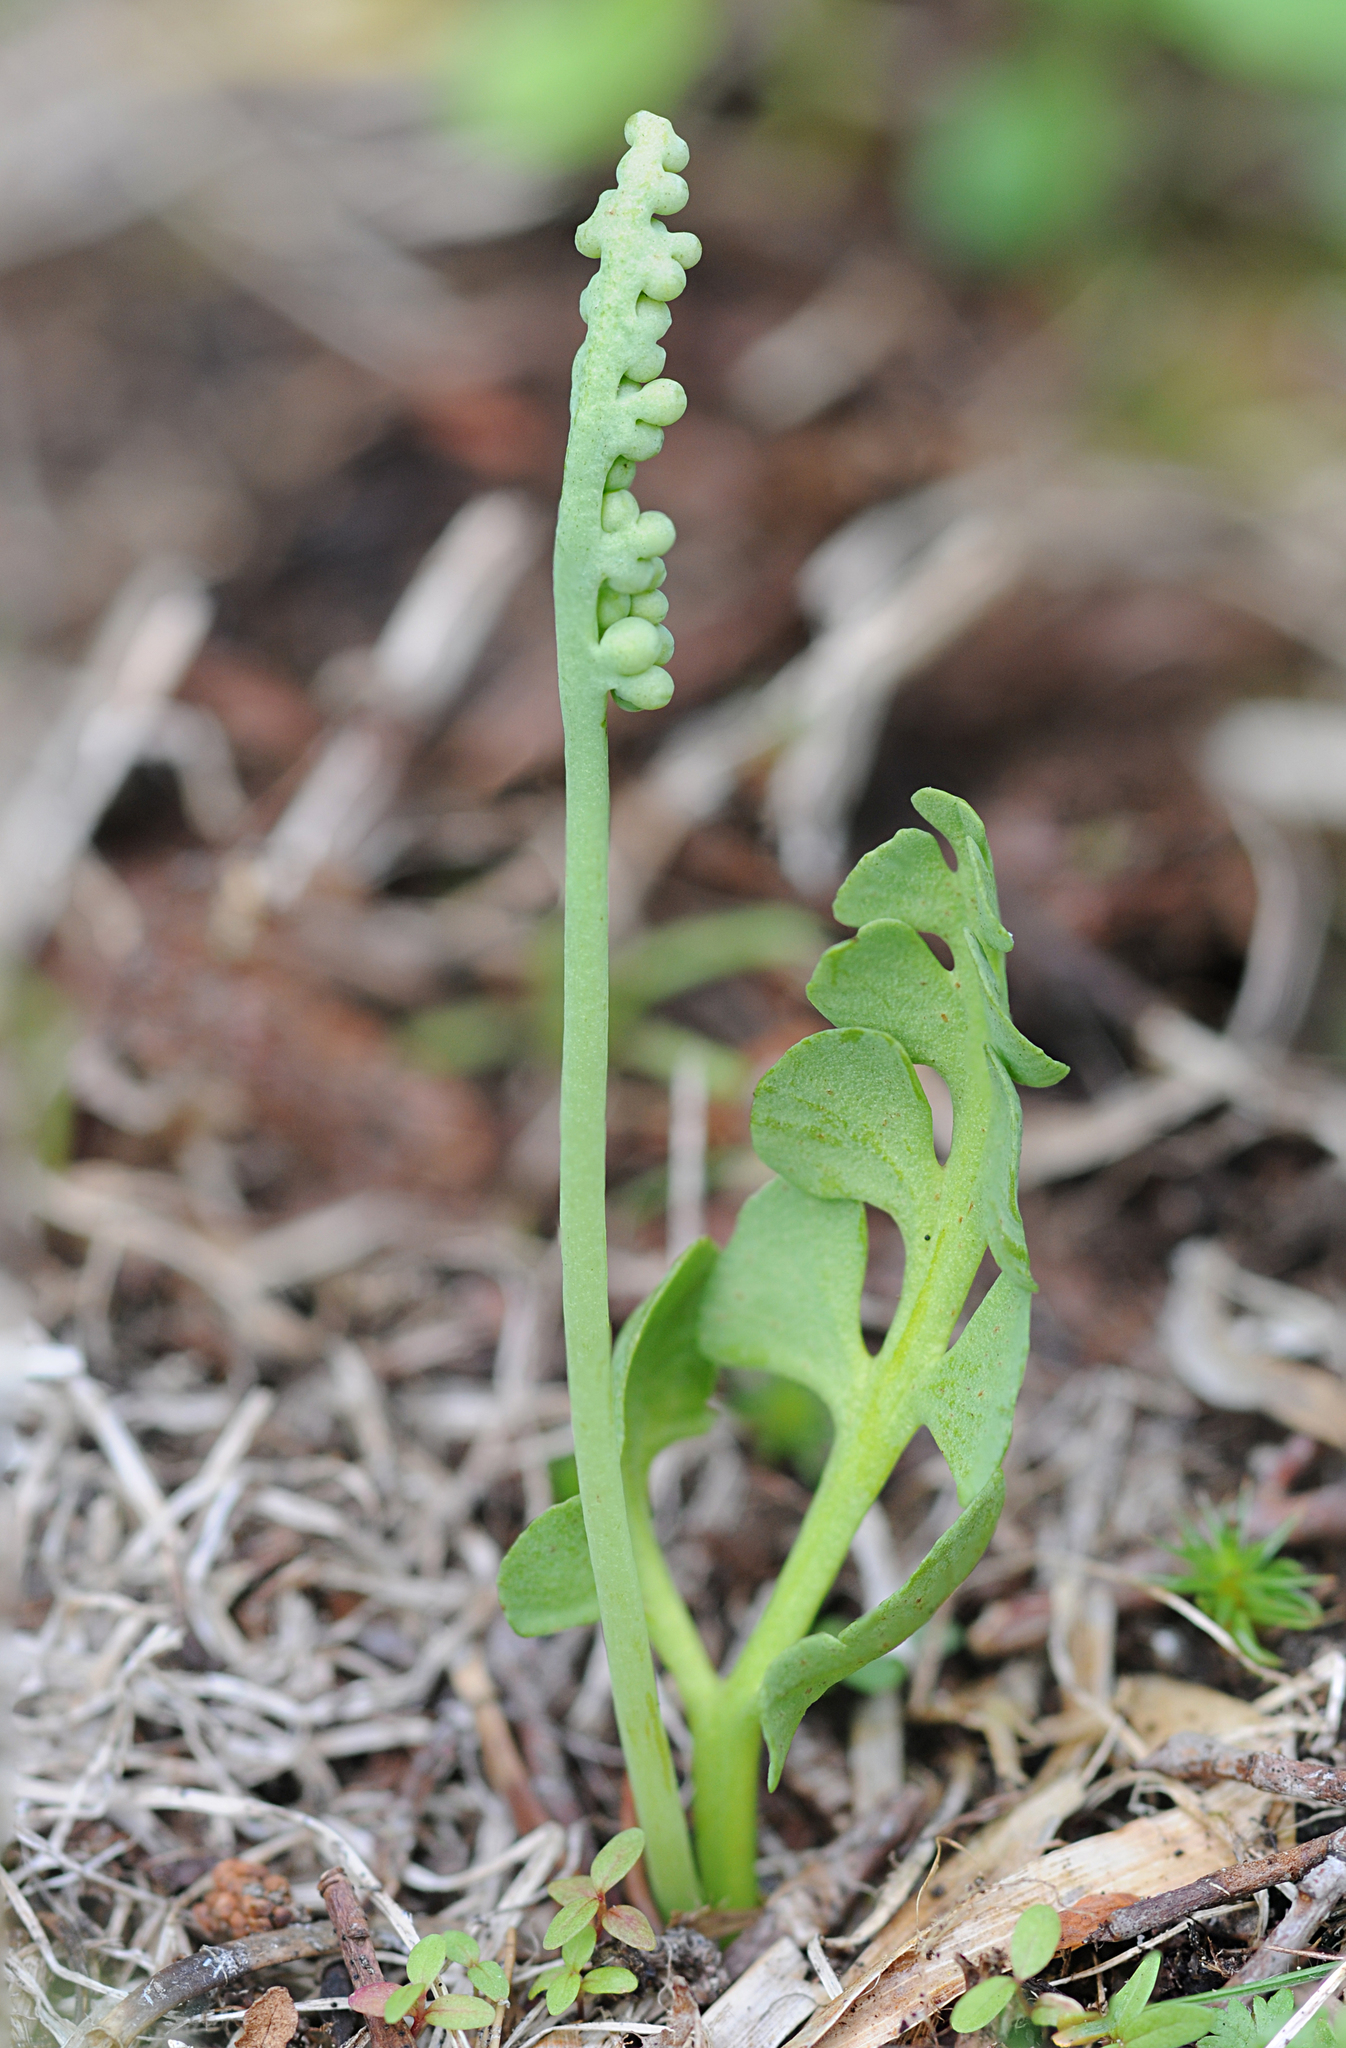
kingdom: Plantae
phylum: Tracheophyta
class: Polypodiopsida
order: Ophioglossales
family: Ophioglossaceae
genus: Botrychium
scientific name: Botrychium simplex
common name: Least moonwort
